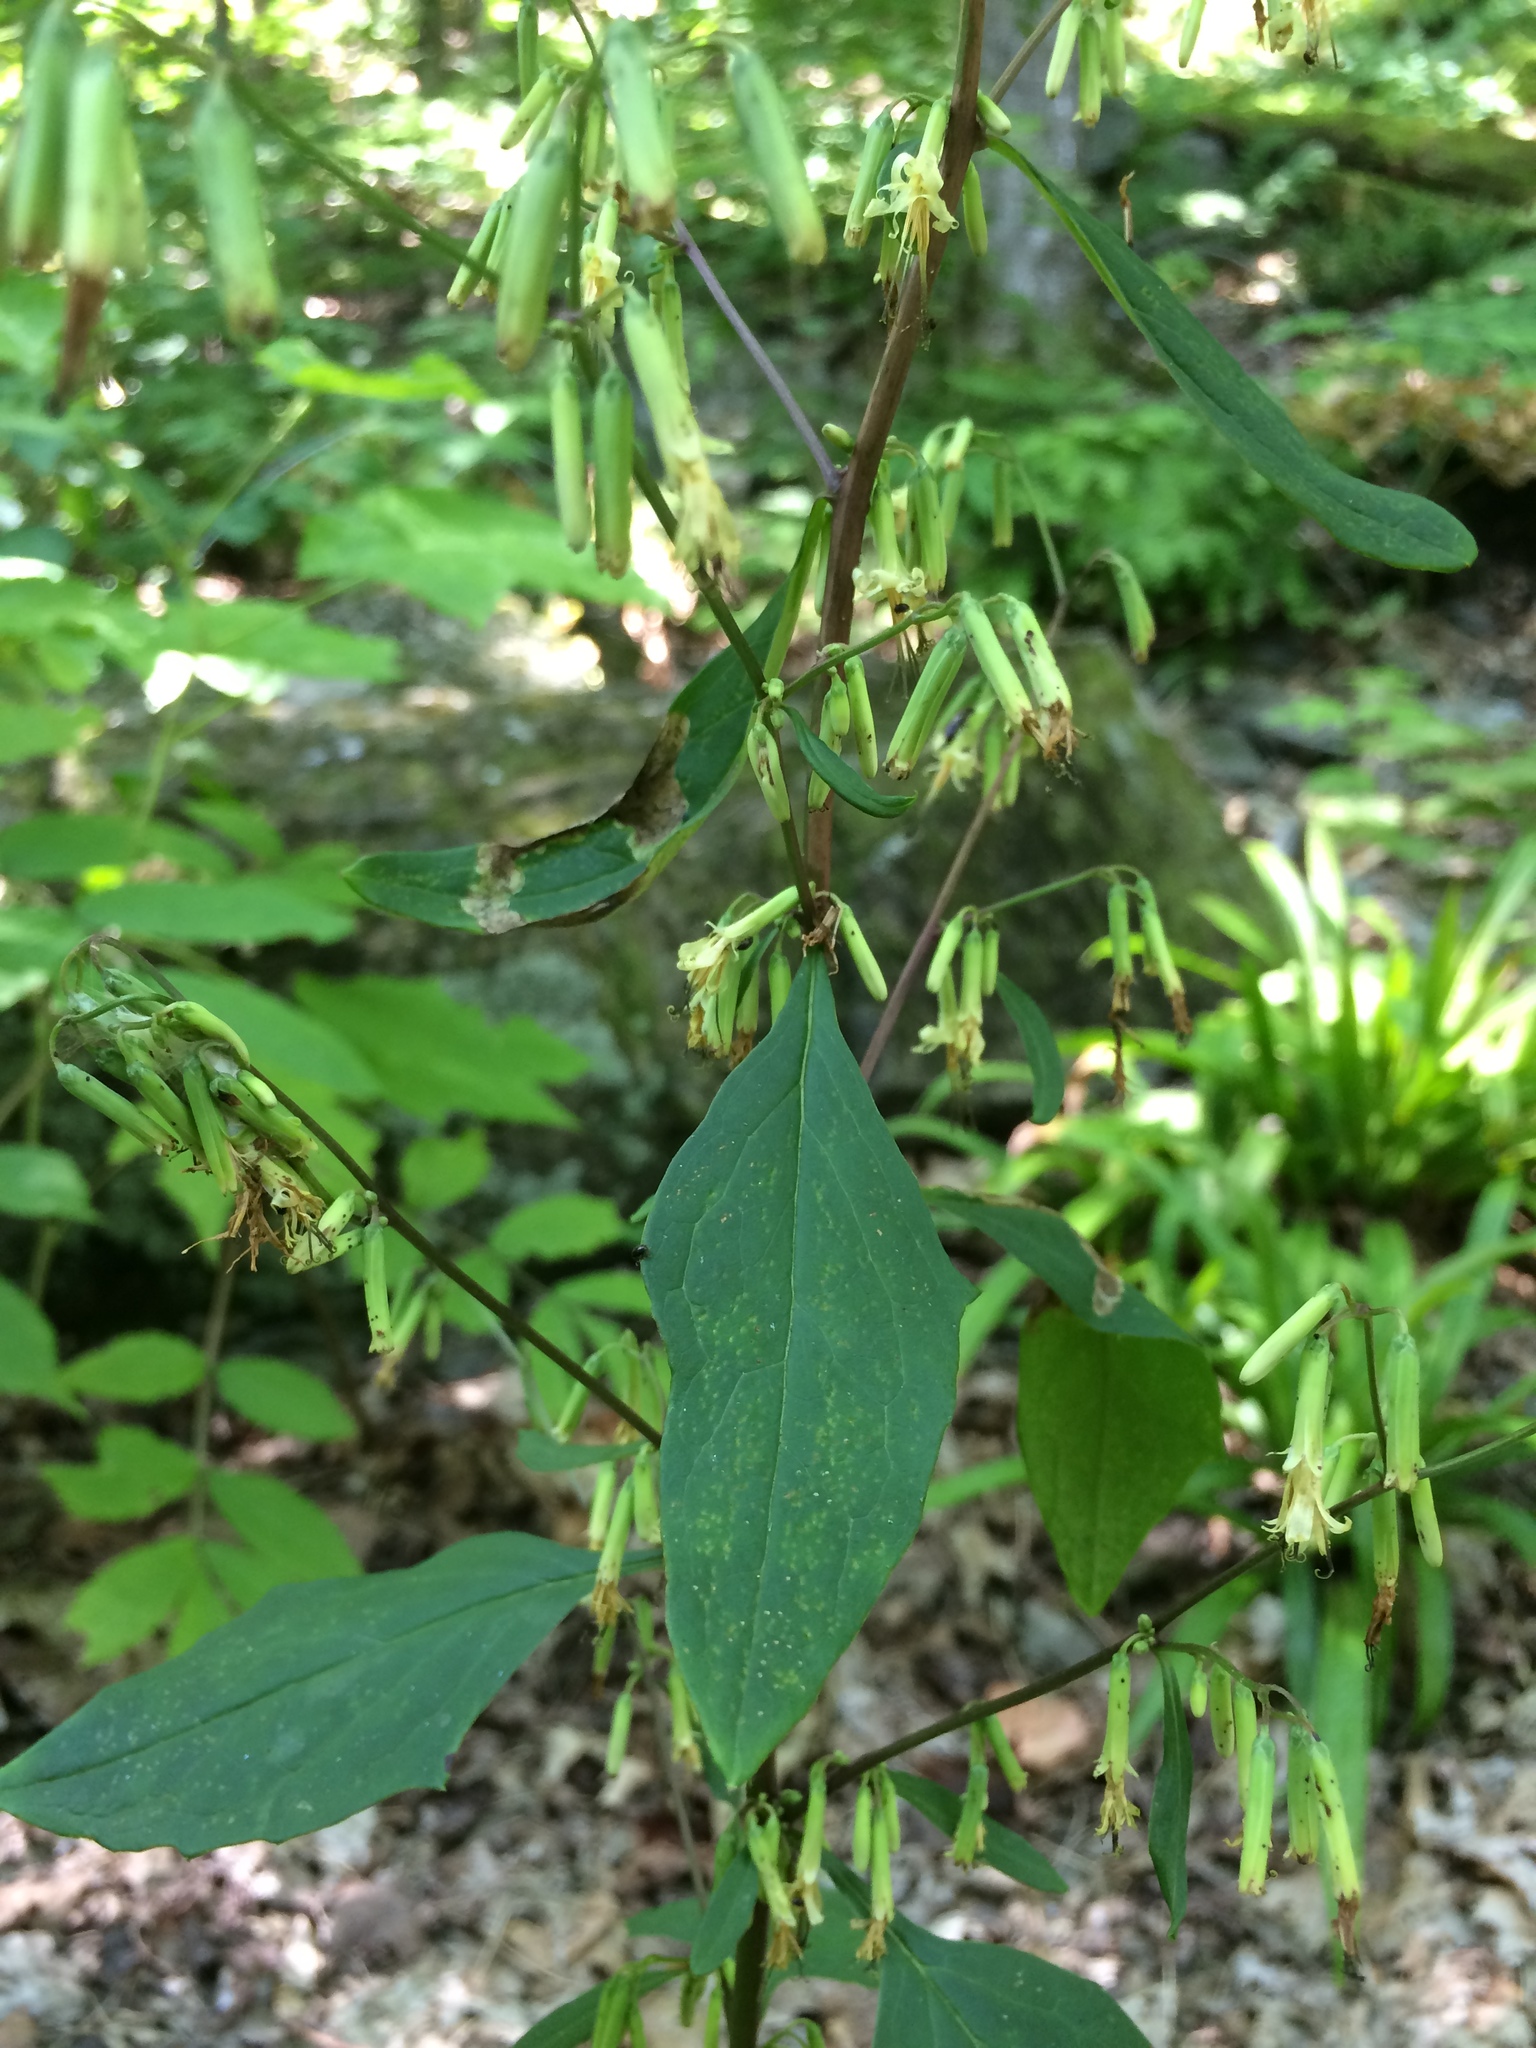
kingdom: Plantae
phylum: Tracheophyta
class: Magnoliopsida
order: Asterales
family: Asteraceae
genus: Nabalus
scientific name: Nabalus altissima
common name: Tall rattlesnakeroot
